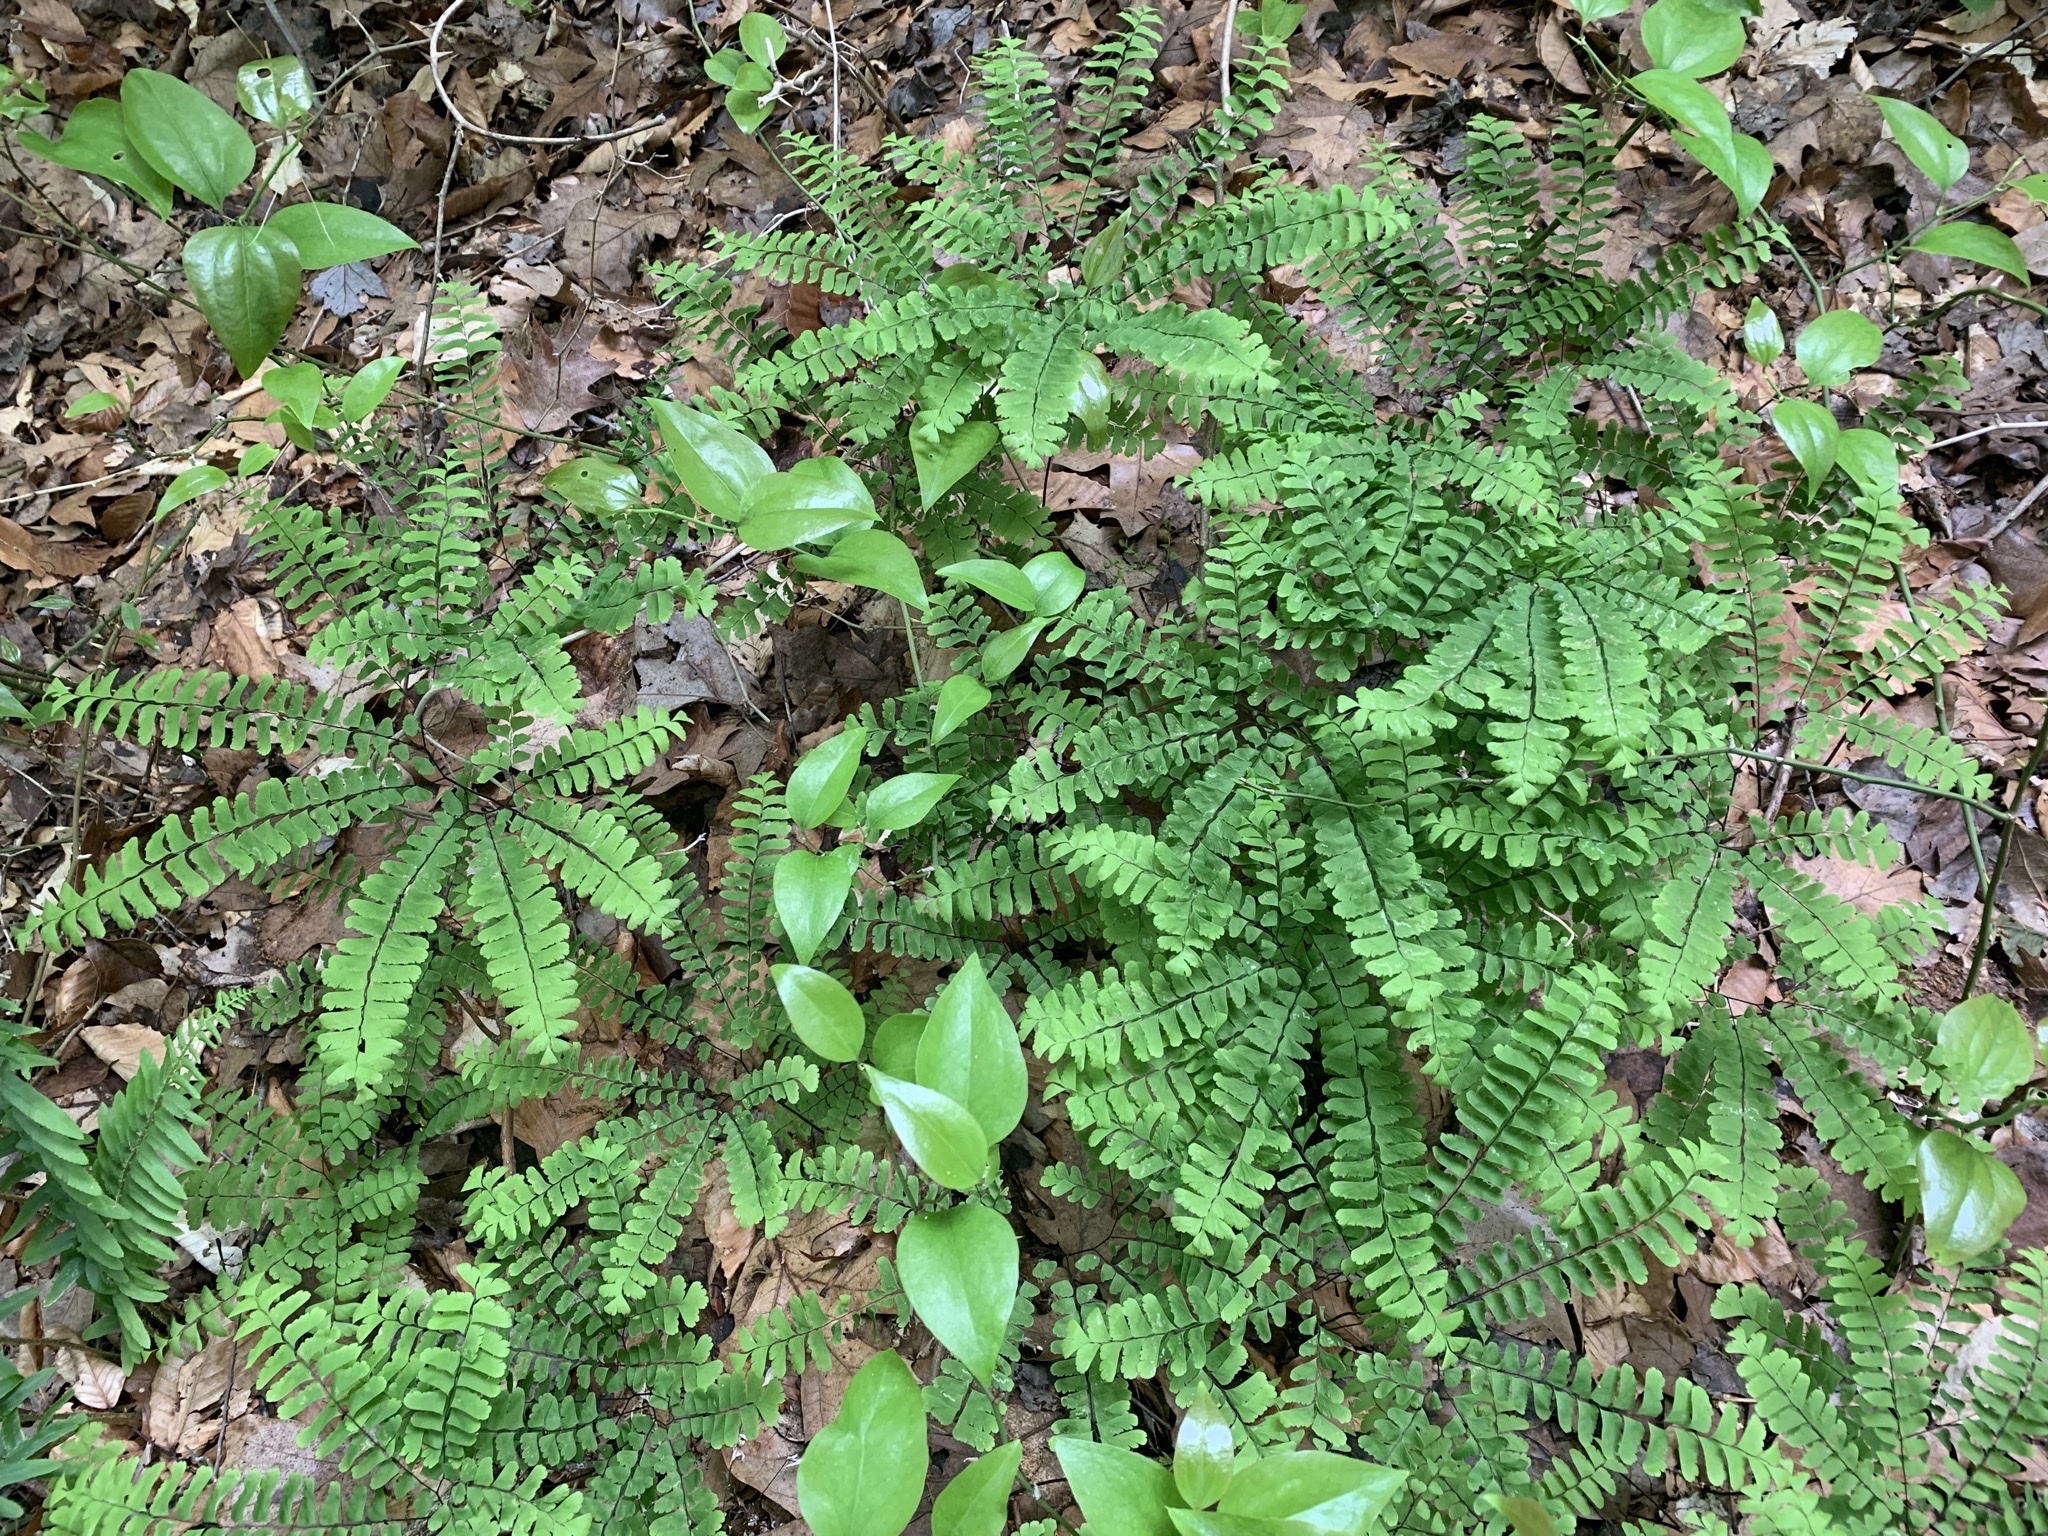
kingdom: Plantae
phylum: Tracheophyta
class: Polypodiopsida
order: Polypodiales
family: Pteridaceae
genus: Adiantum
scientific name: Adiantum pedatum
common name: Five-finger fern
